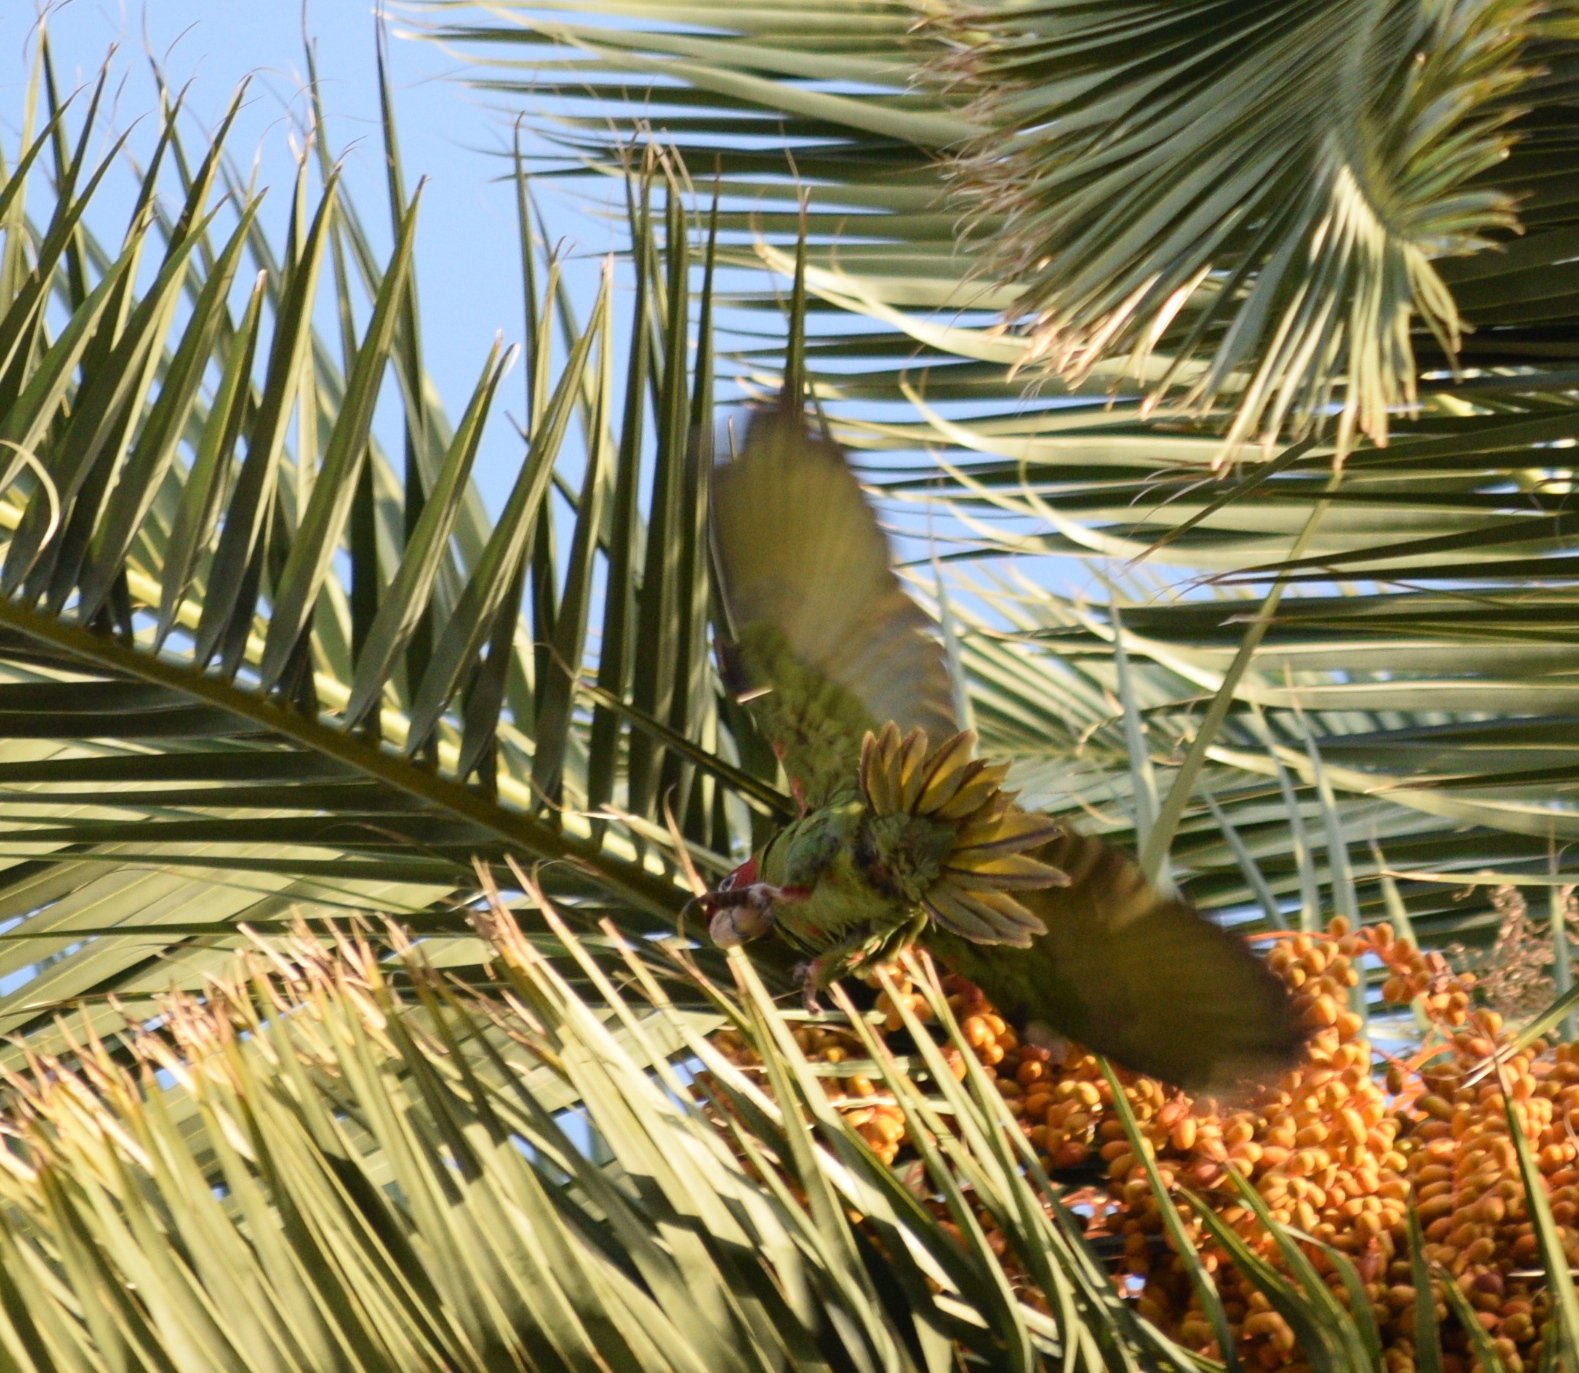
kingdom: Animalia
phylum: Chordata
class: Aves
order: Psittaciformes
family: Psittacidae
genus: Aratinga
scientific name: Aratinga mitrata
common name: Mitred parakeet
